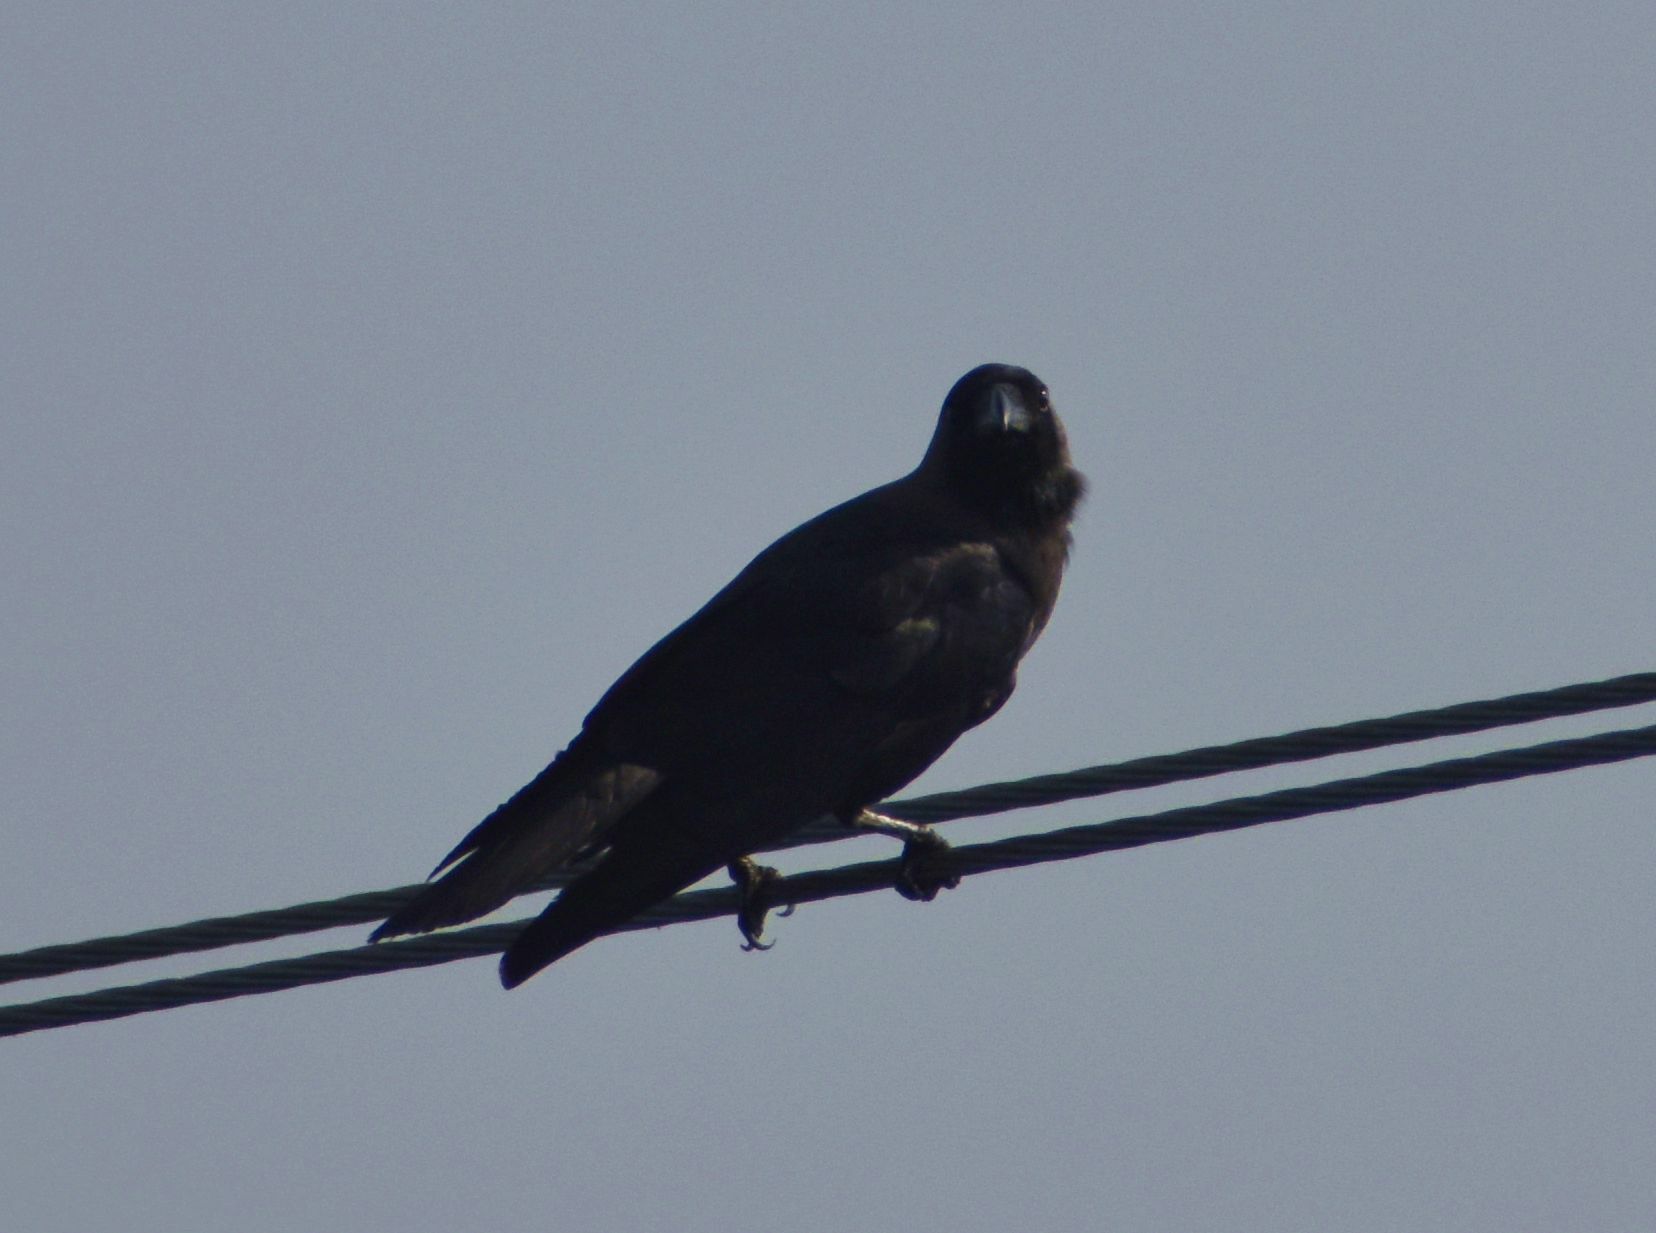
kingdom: Animalia
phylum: Chordata
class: Aves
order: Passeriformes
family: Corvidae
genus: Corvus
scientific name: Corvus macrorhynchos
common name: Large-billed crow
